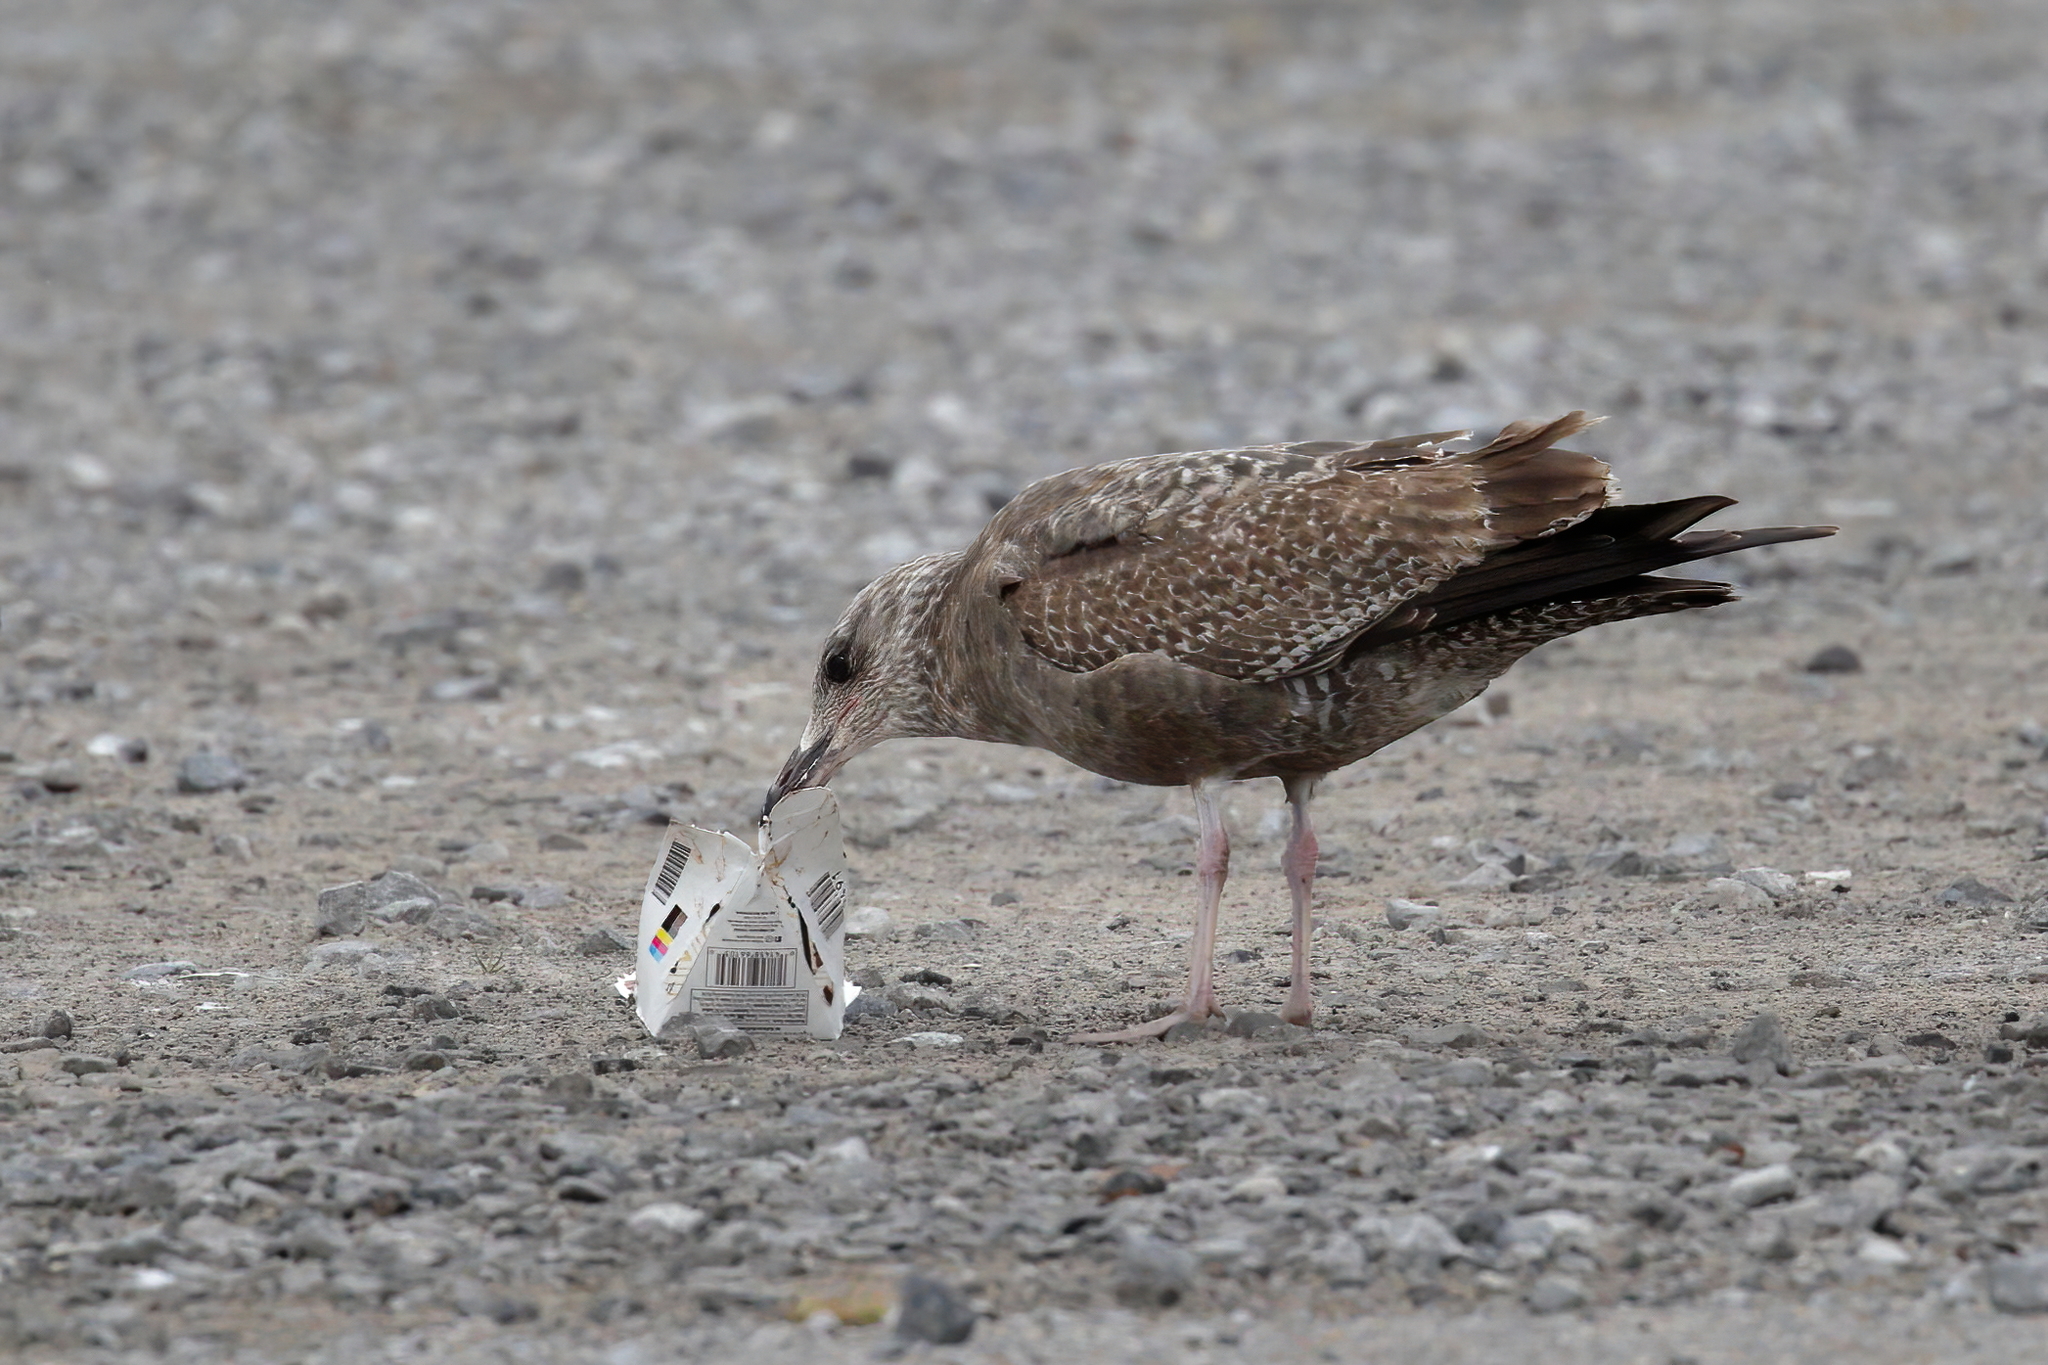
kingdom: Animalia
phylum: Chordata
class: Aves
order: Charadriiformes
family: Laridae
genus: Larus
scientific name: Larus argentatus
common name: Herring gull
